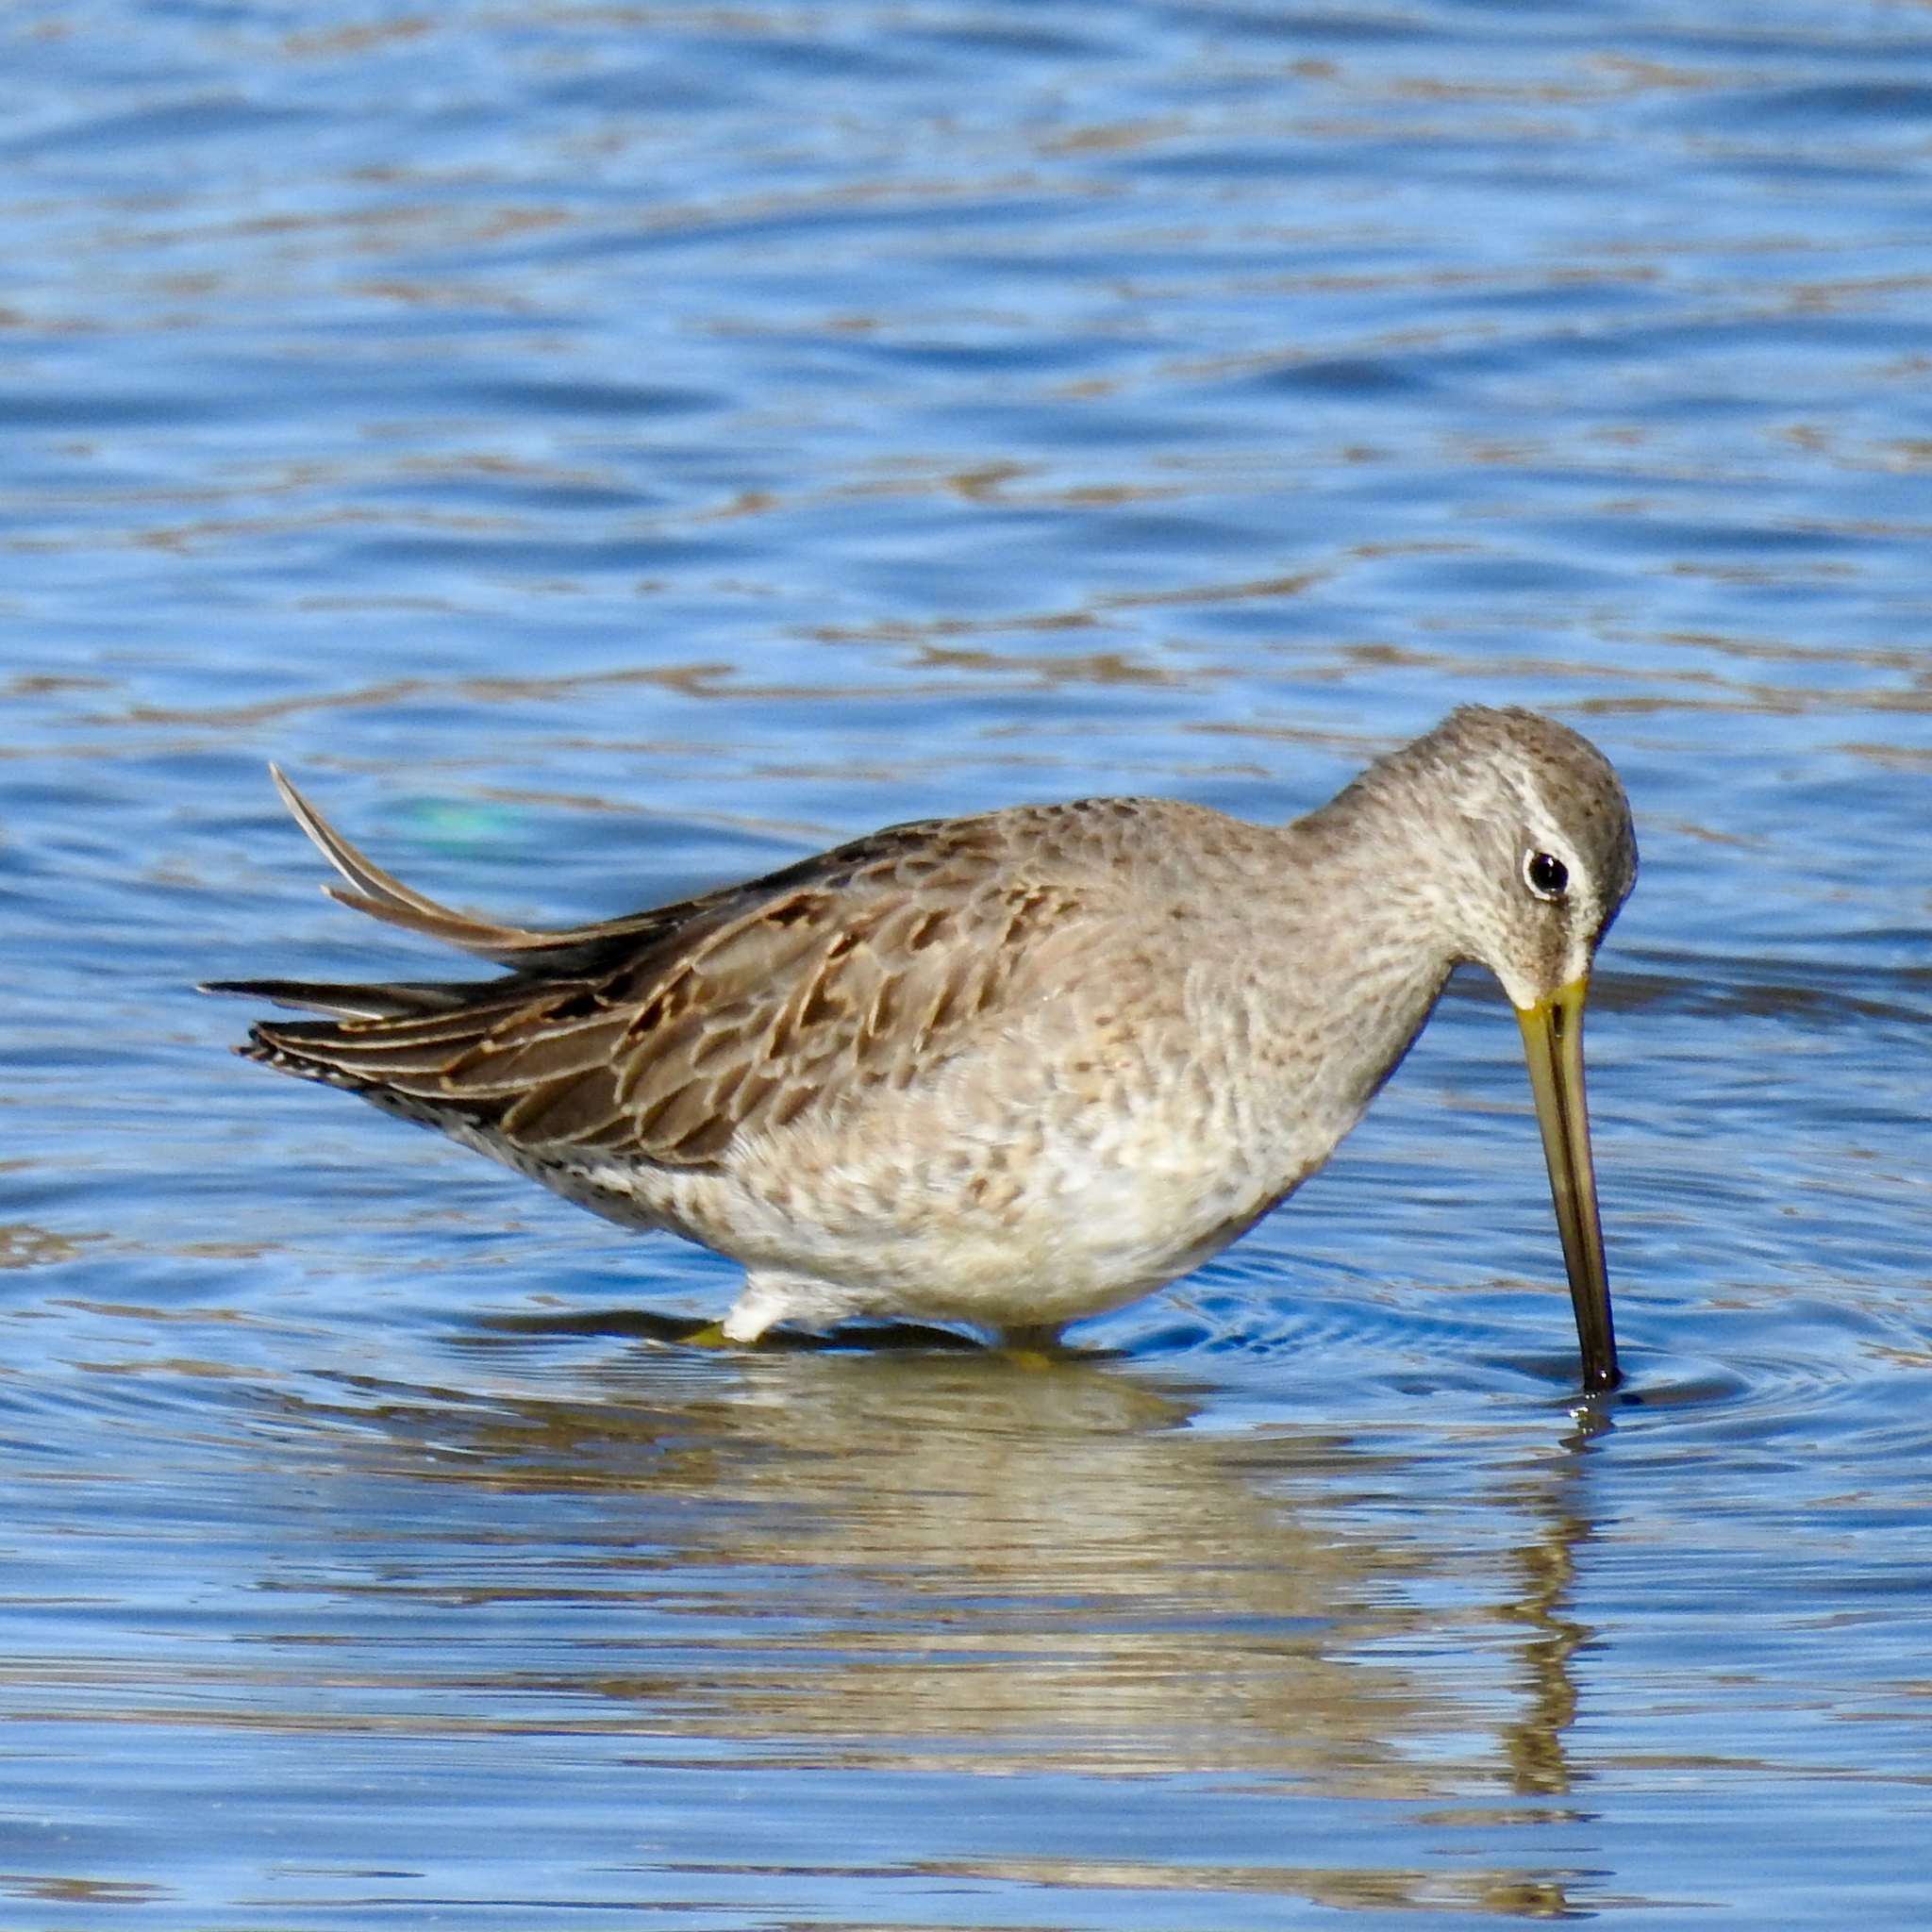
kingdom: Animalia
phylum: Chordata
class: Aves
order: Charadriiformes
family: Scolopacidae
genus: Limnodromus
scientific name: Limnodromus scolopaceus
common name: Long-billed dowitcher
